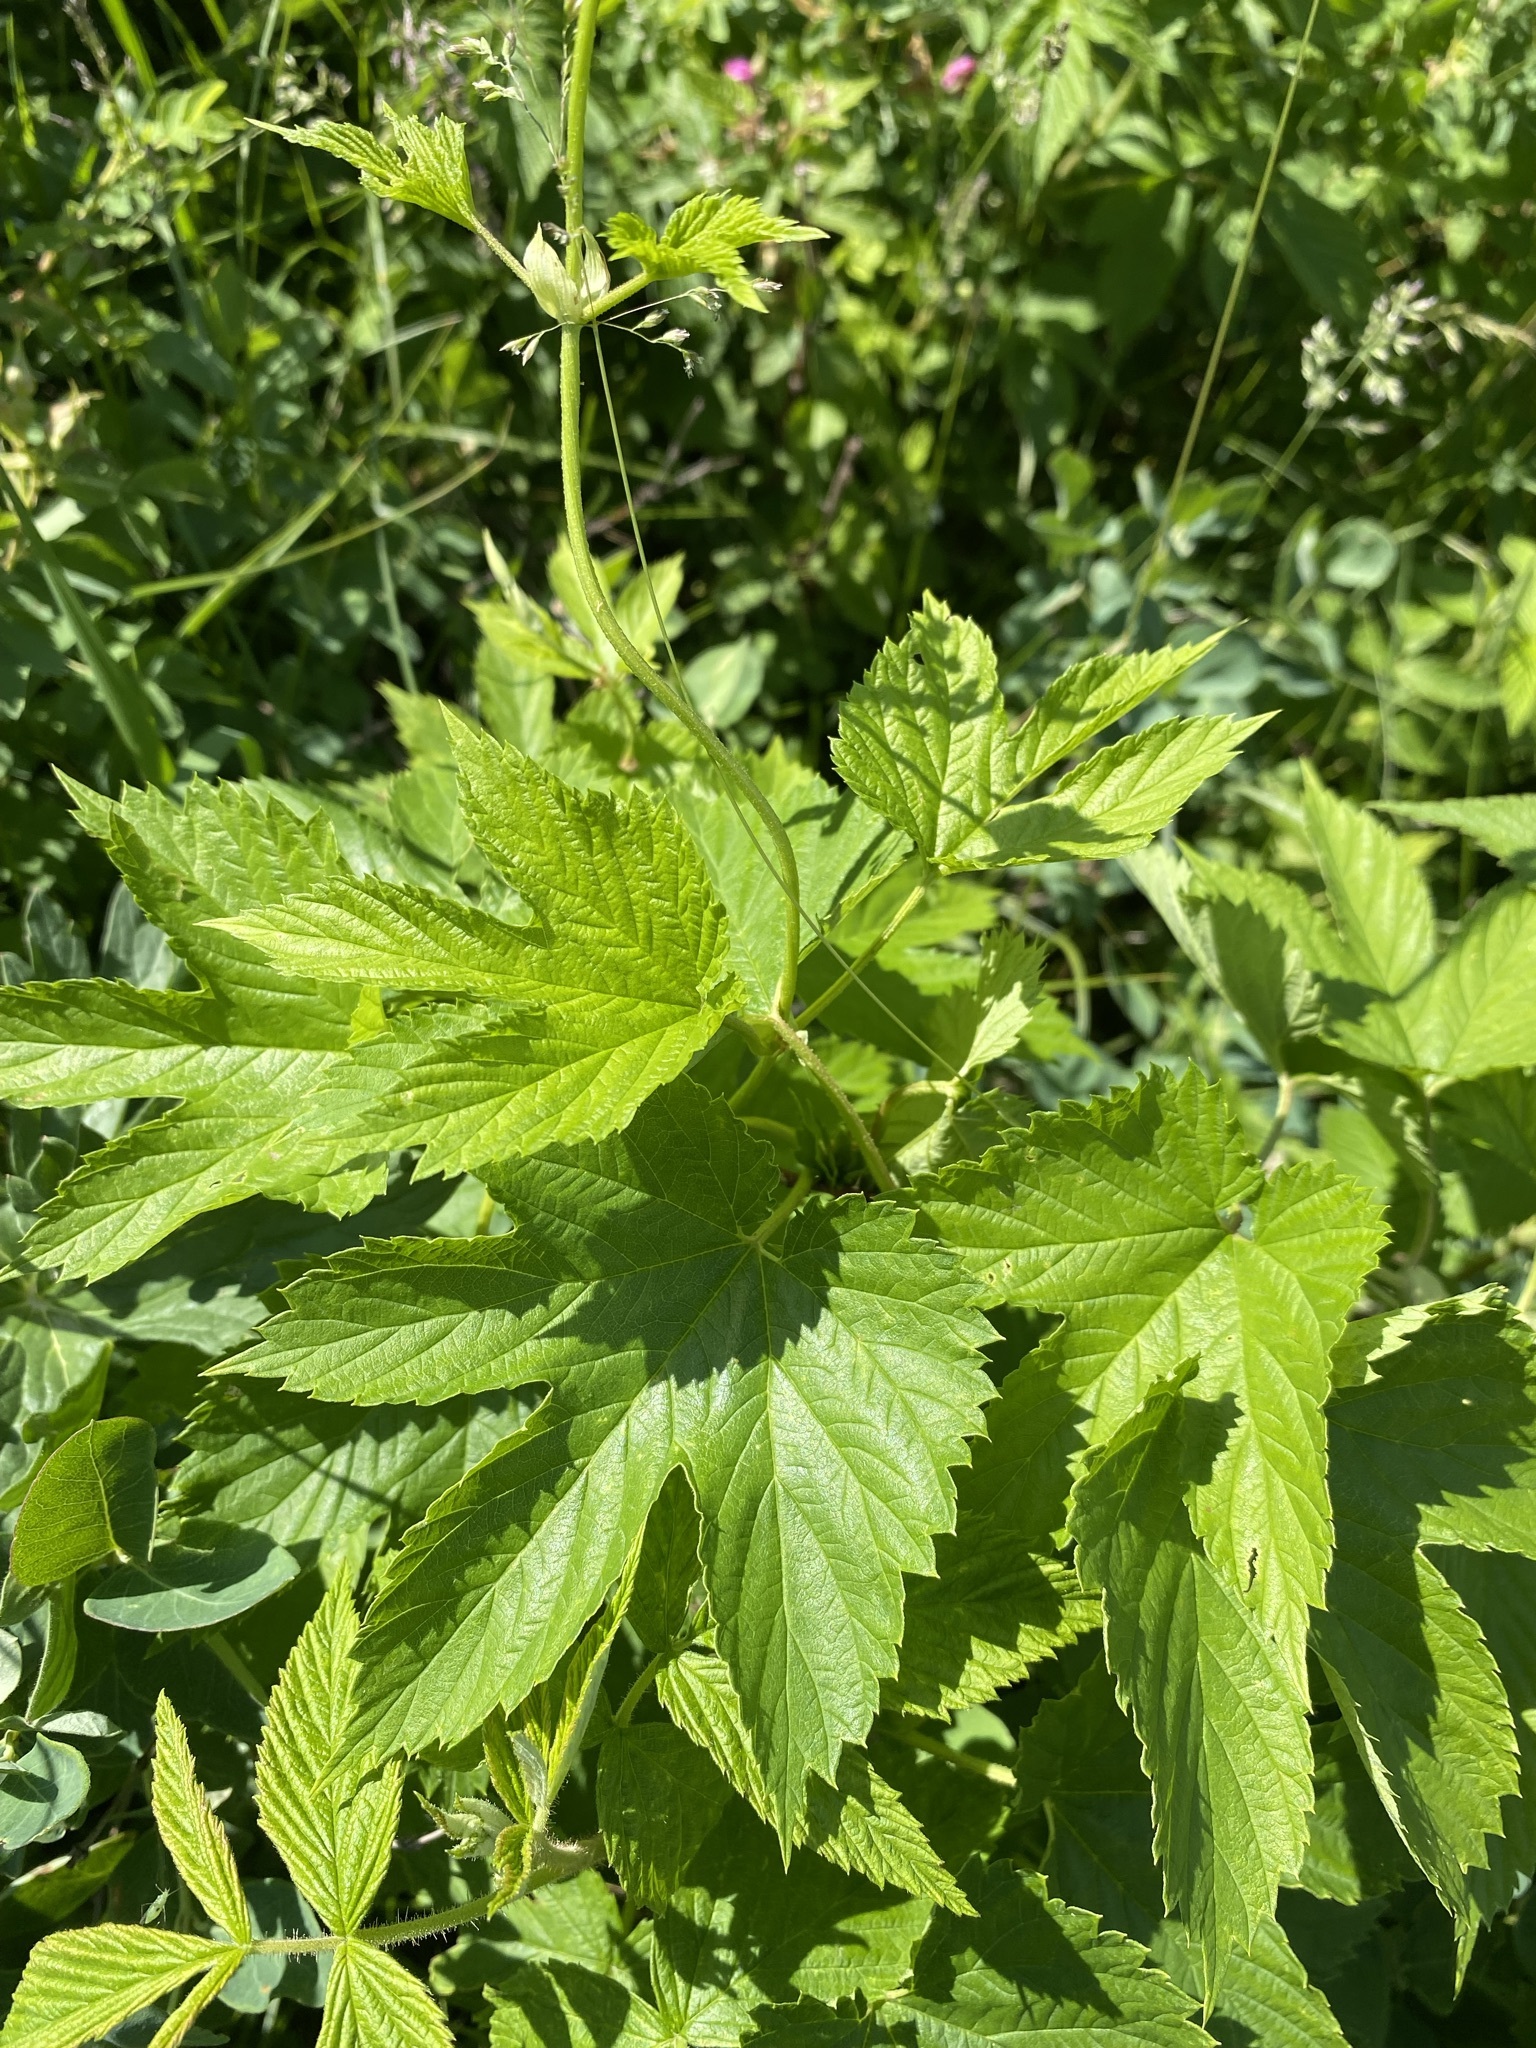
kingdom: Plantae
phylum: Tracheophyta
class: Magnoliopsida
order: Rosales
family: Cannabaceae
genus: Humulus
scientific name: Humulus lupulus
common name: Hop
